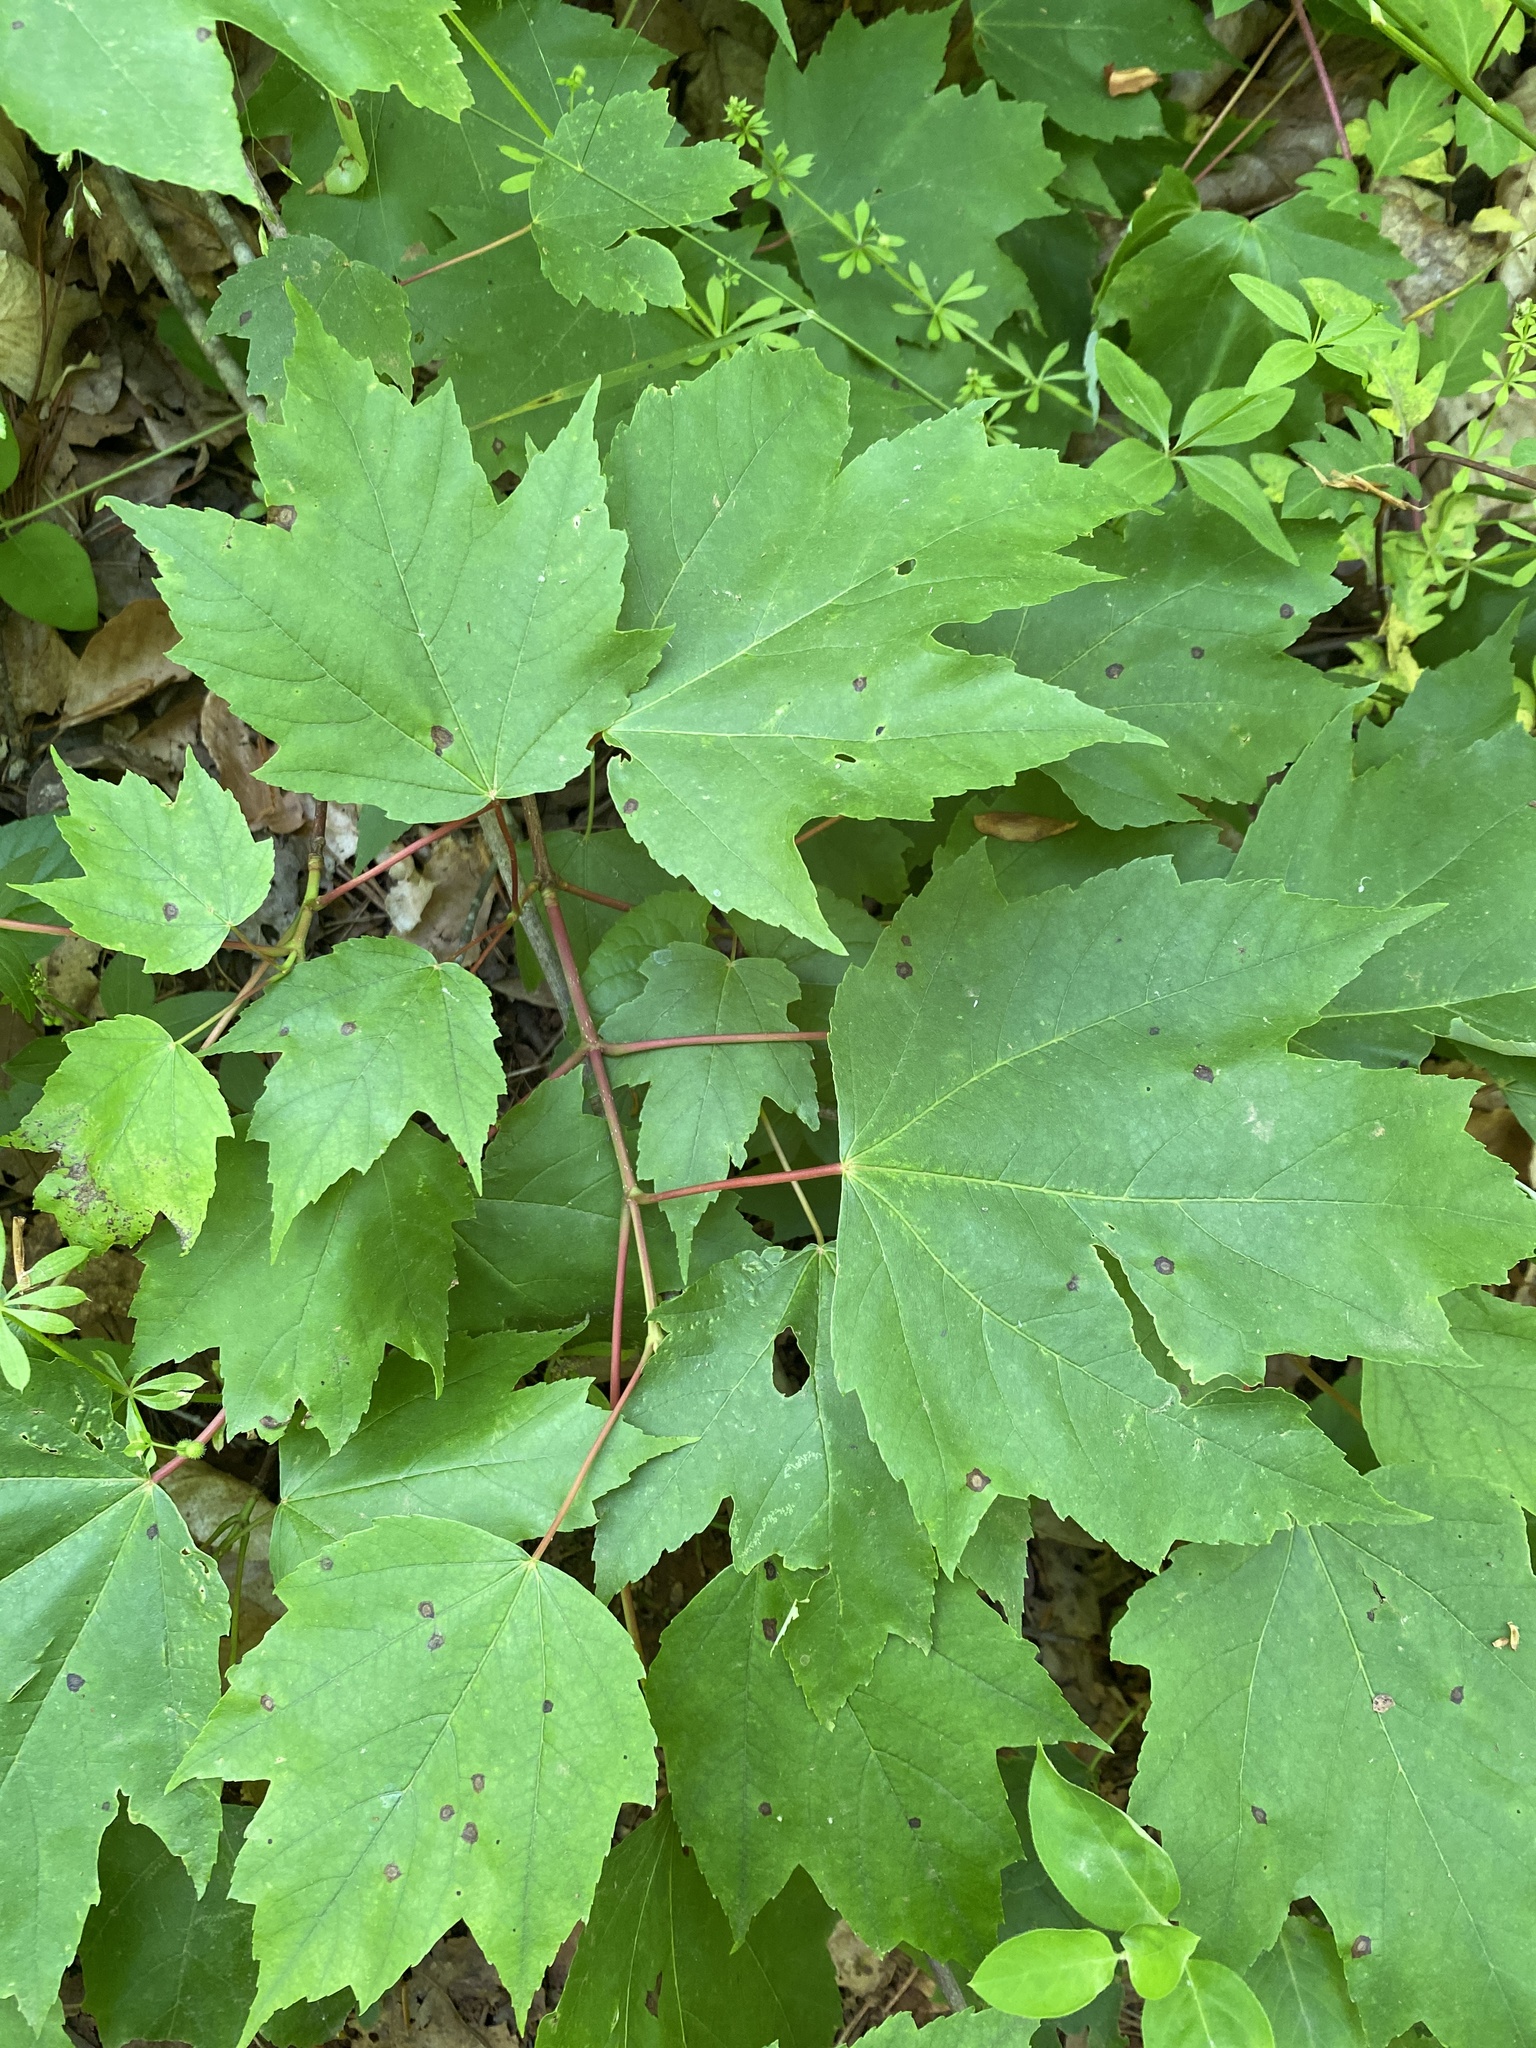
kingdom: Plantae
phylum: Tracheophyta
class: Magnoliopsida
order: Sapindales
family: Sapindaceae
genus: Acer
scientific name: Acer rubrum
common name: Red maple
